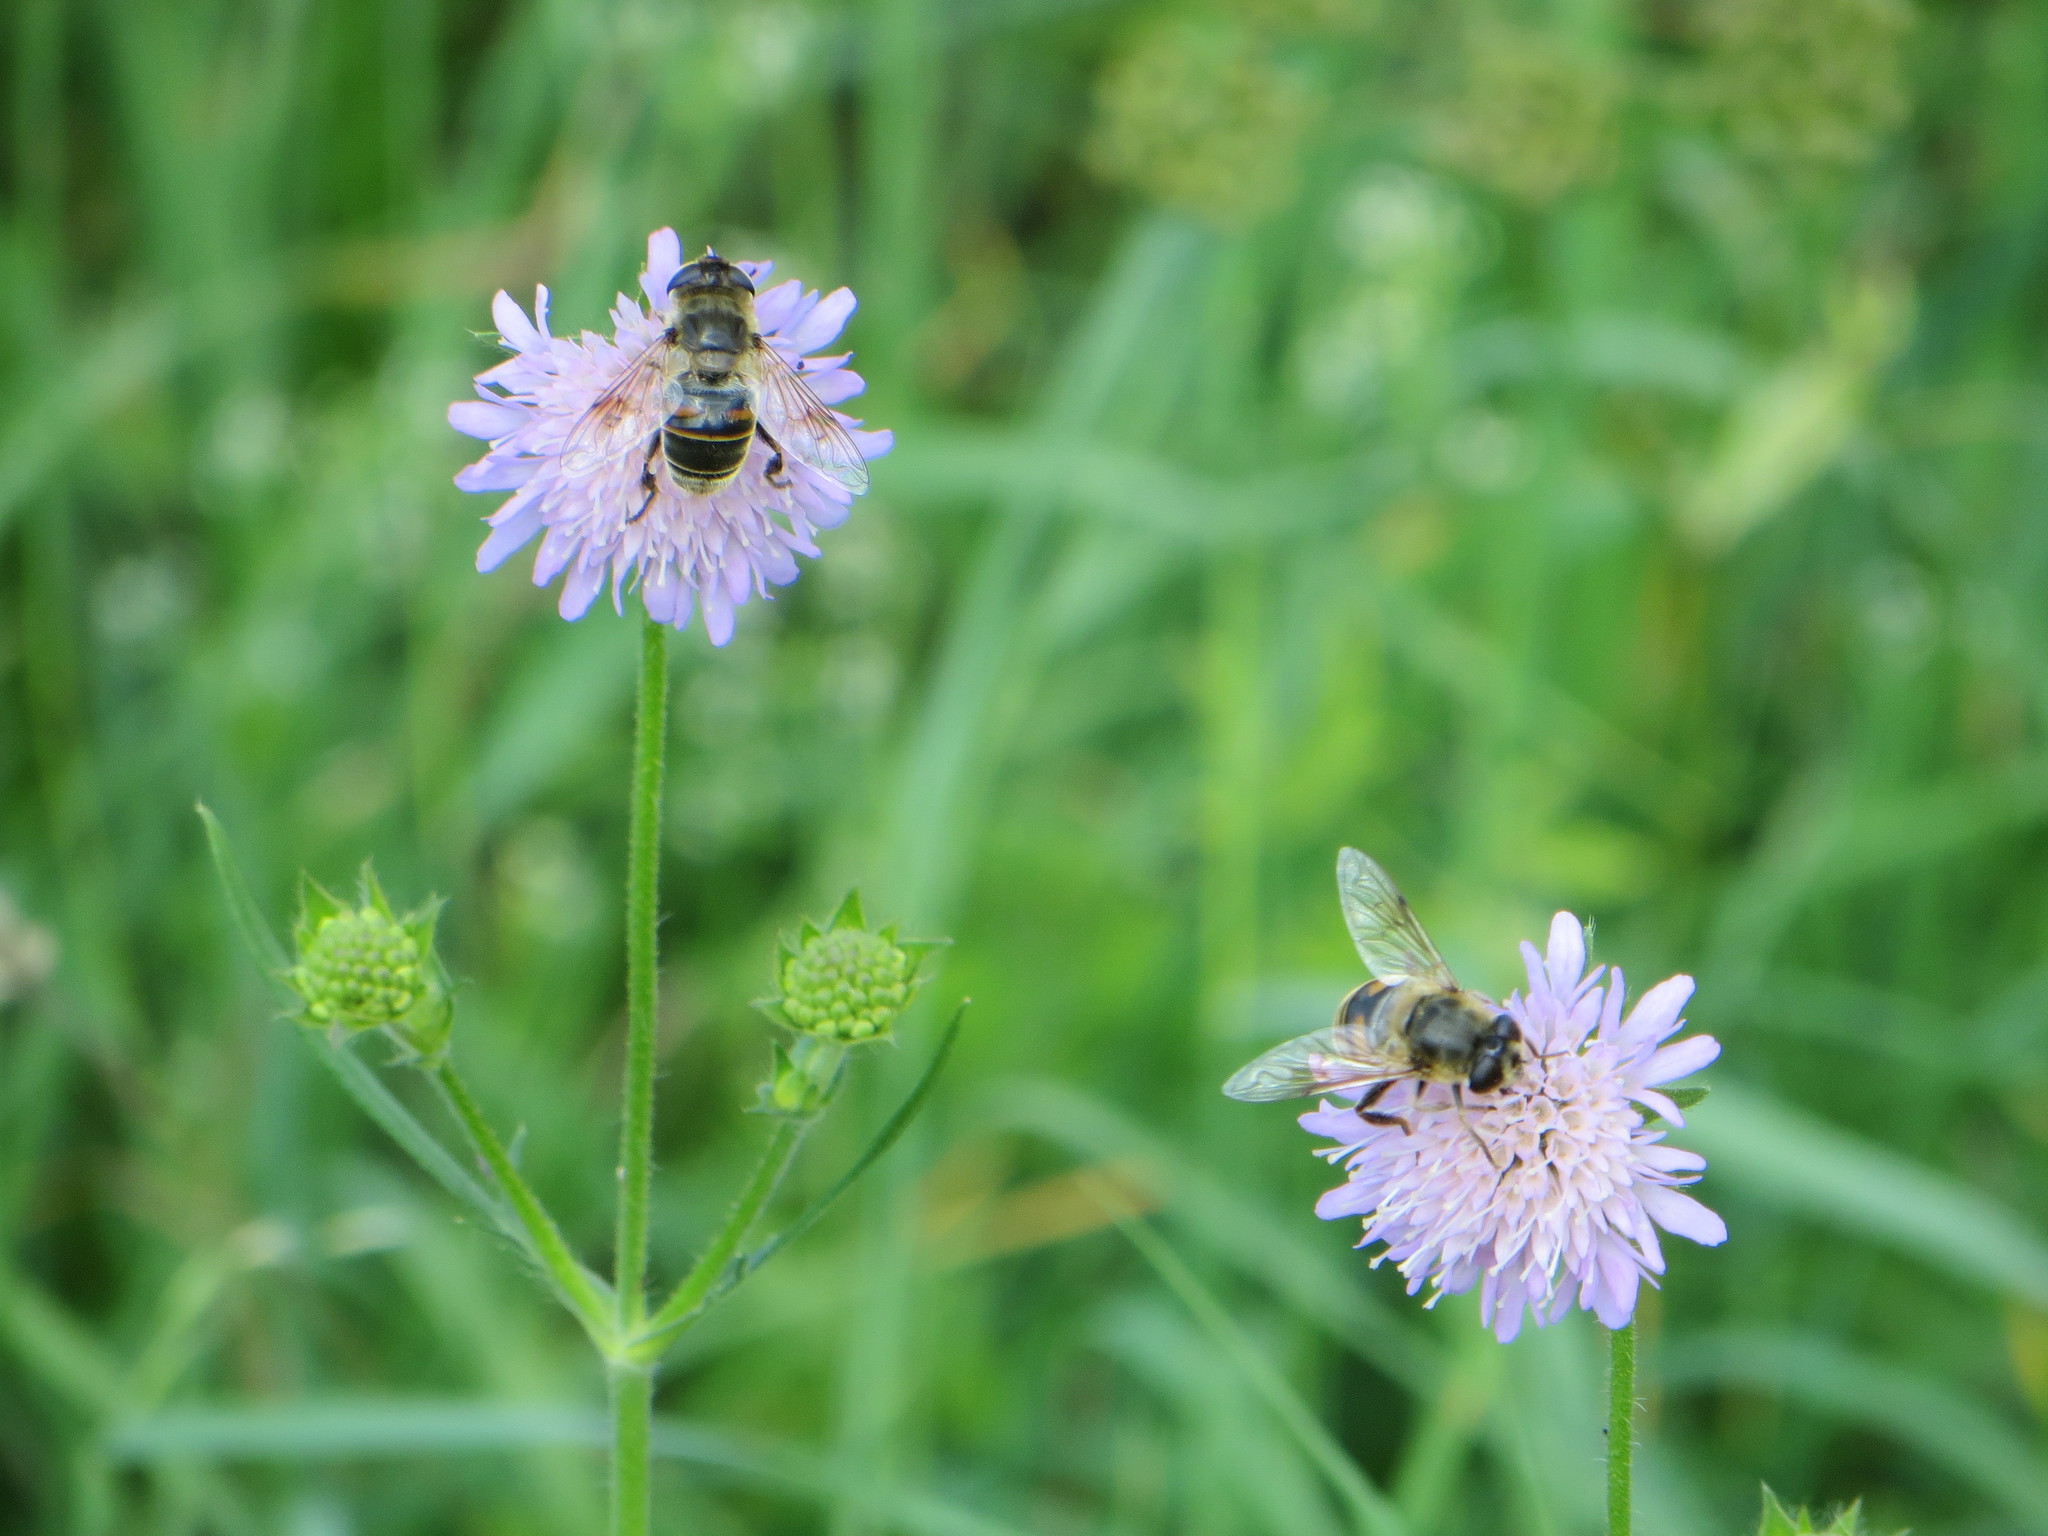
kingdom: Animalia
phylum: Arthropoda
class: Insecta
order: Diptera
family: Syrphidae
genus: Eristalis
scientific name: Eristalis tenax
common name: Drone fly
